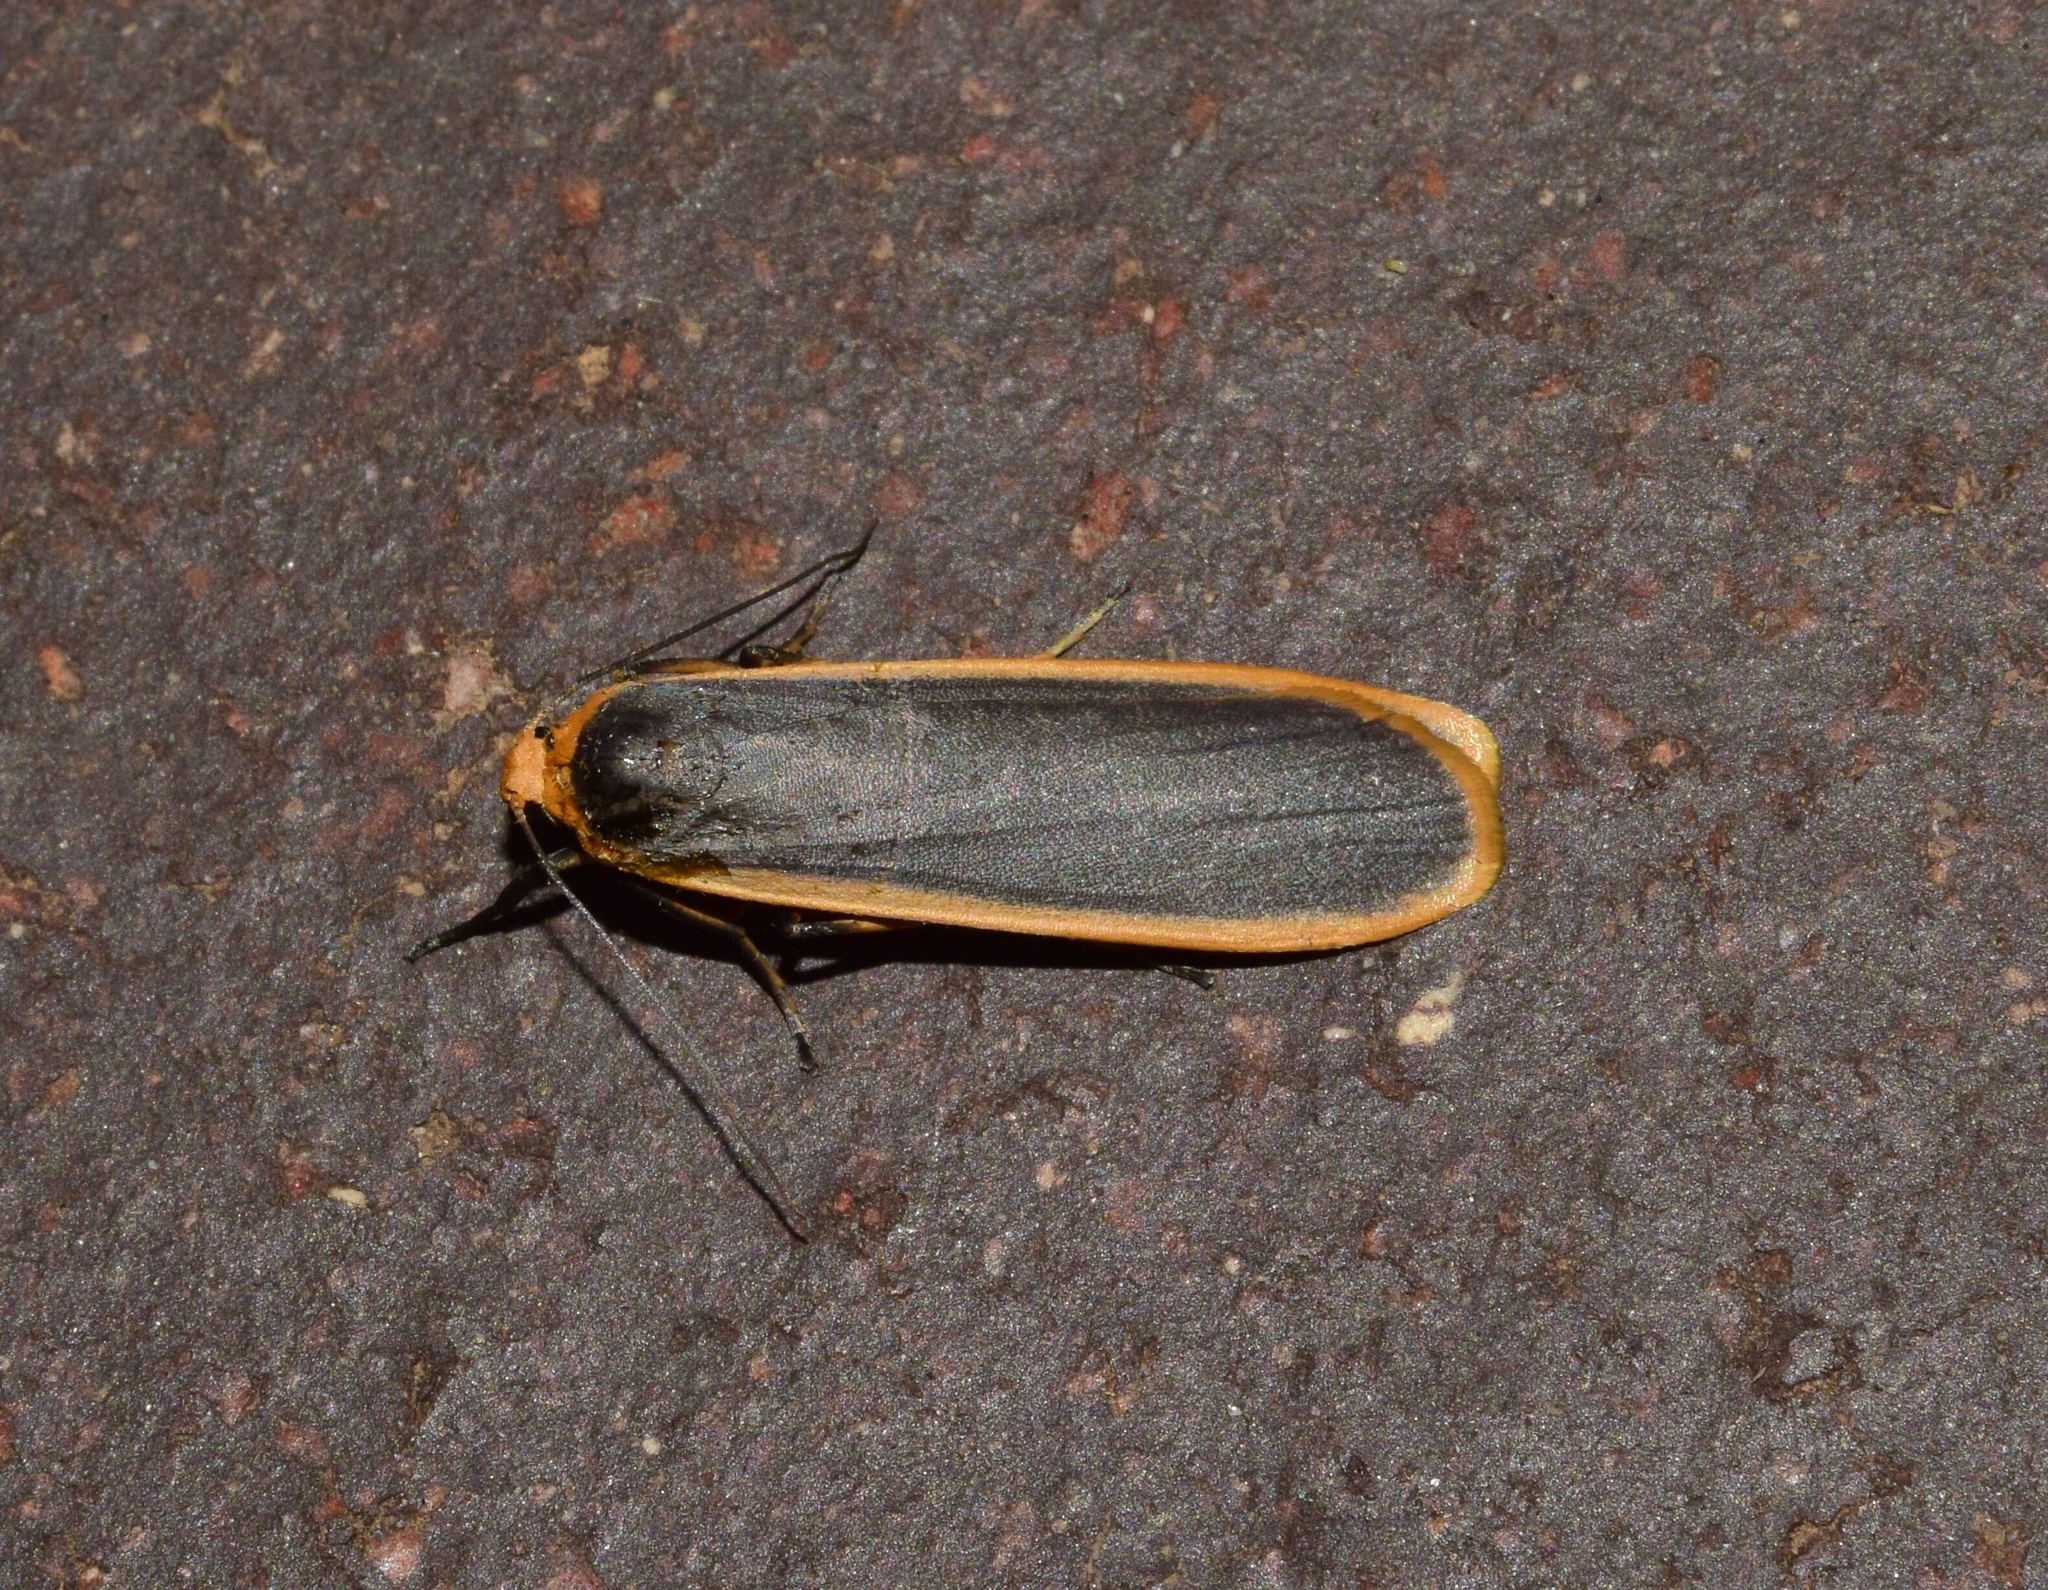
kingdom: Animalia
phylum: Arthropoda
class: Insecta
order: Lepidoptera
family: Erebidae
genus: Brunia
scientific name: Brunia vicaria
